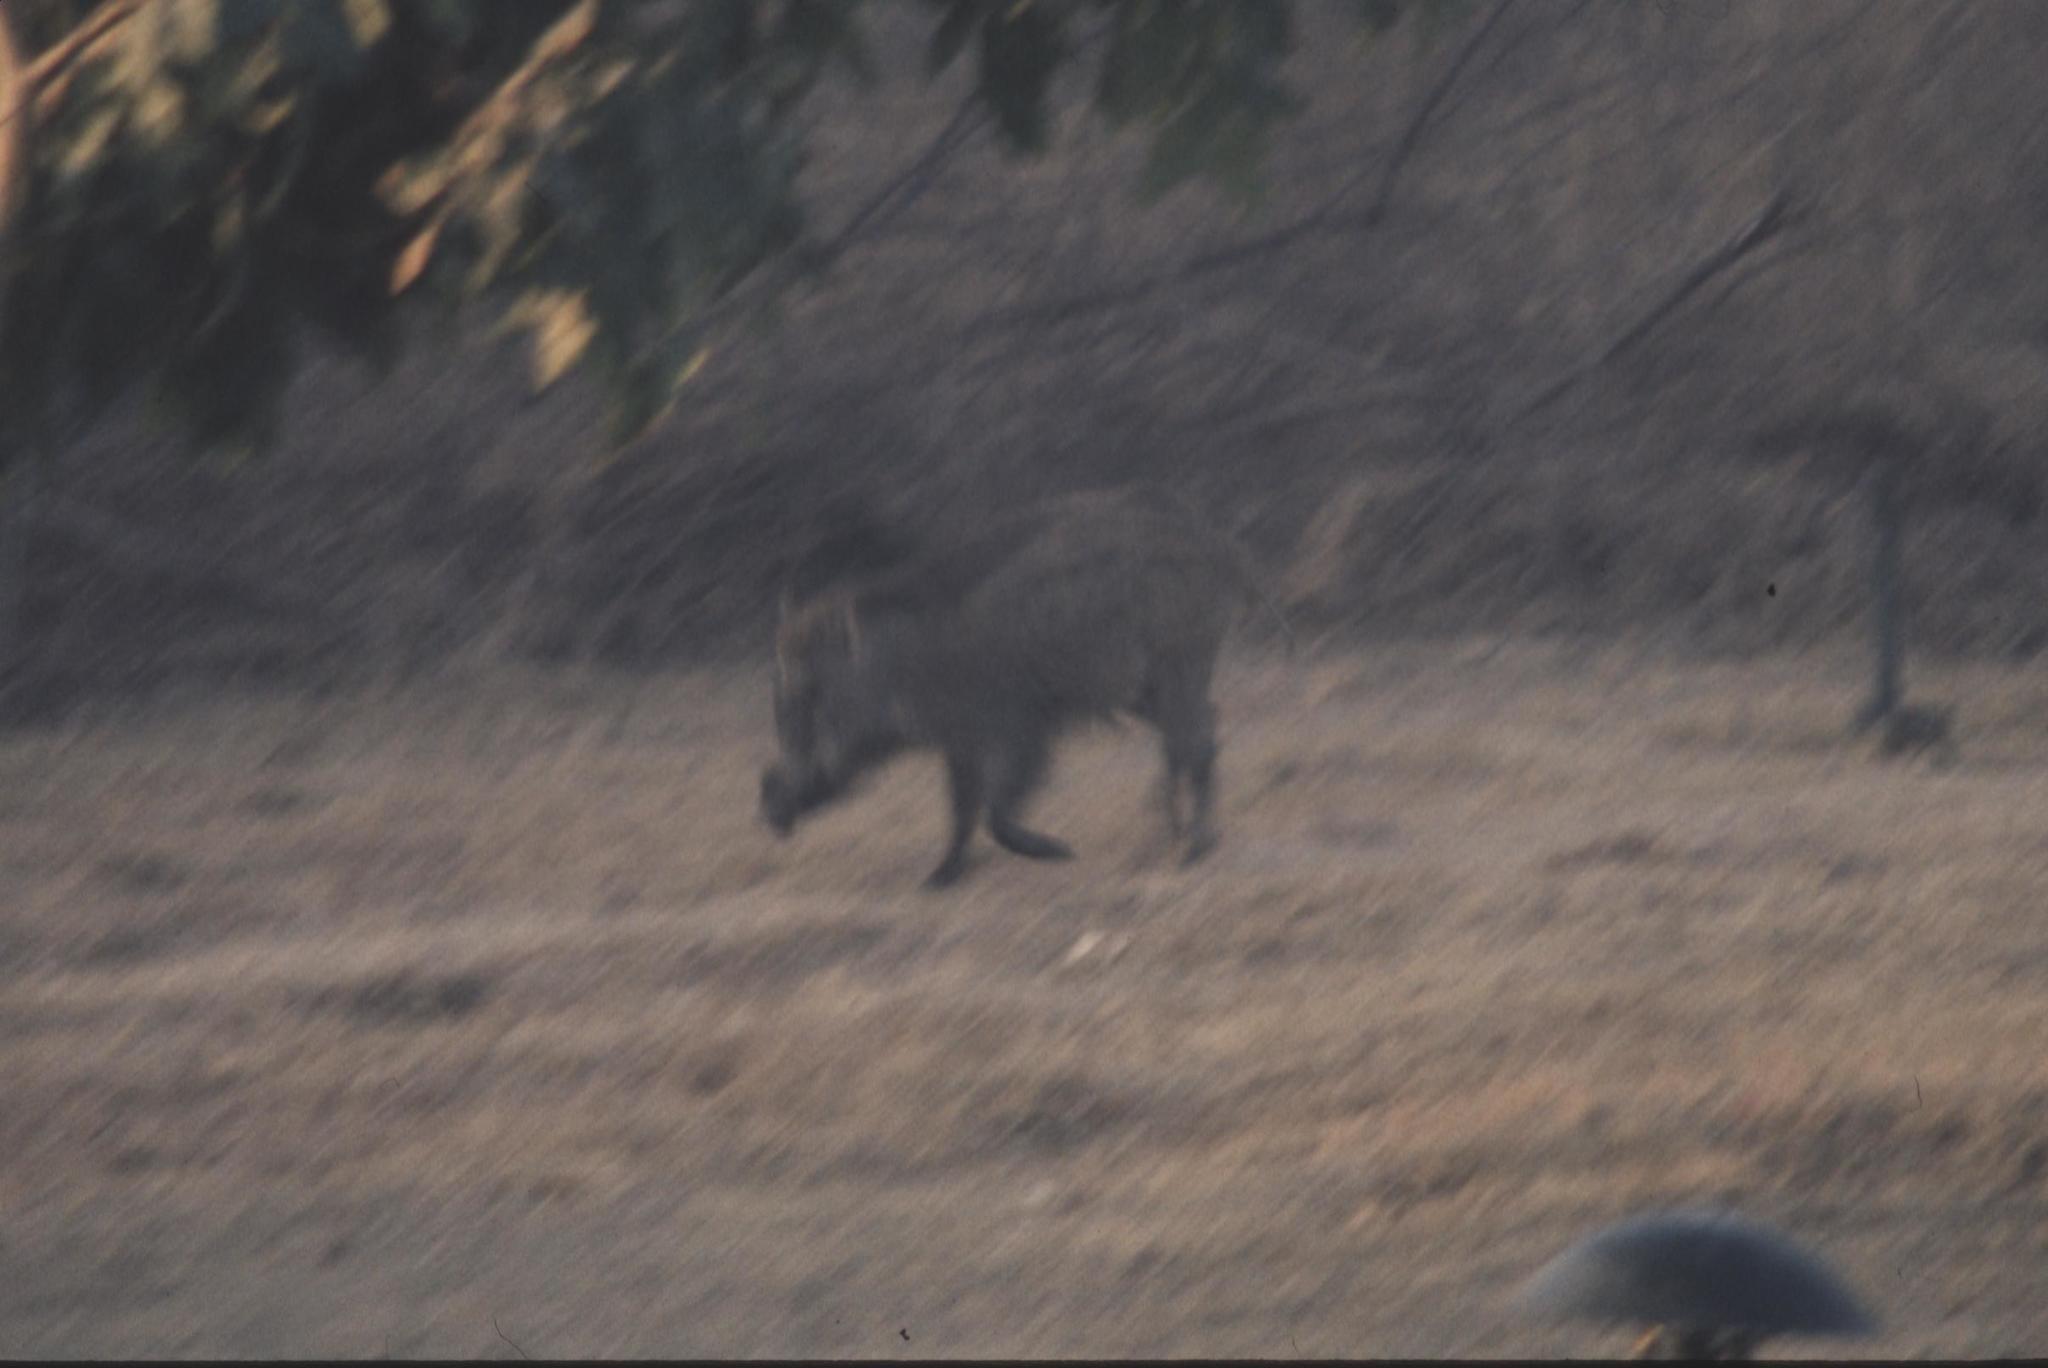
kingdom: Animalia
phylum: Chordata
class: Mammalia
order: Artiodactyla
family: Suidae
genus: Sus
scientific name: Sus scrofa
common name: Wild boar
